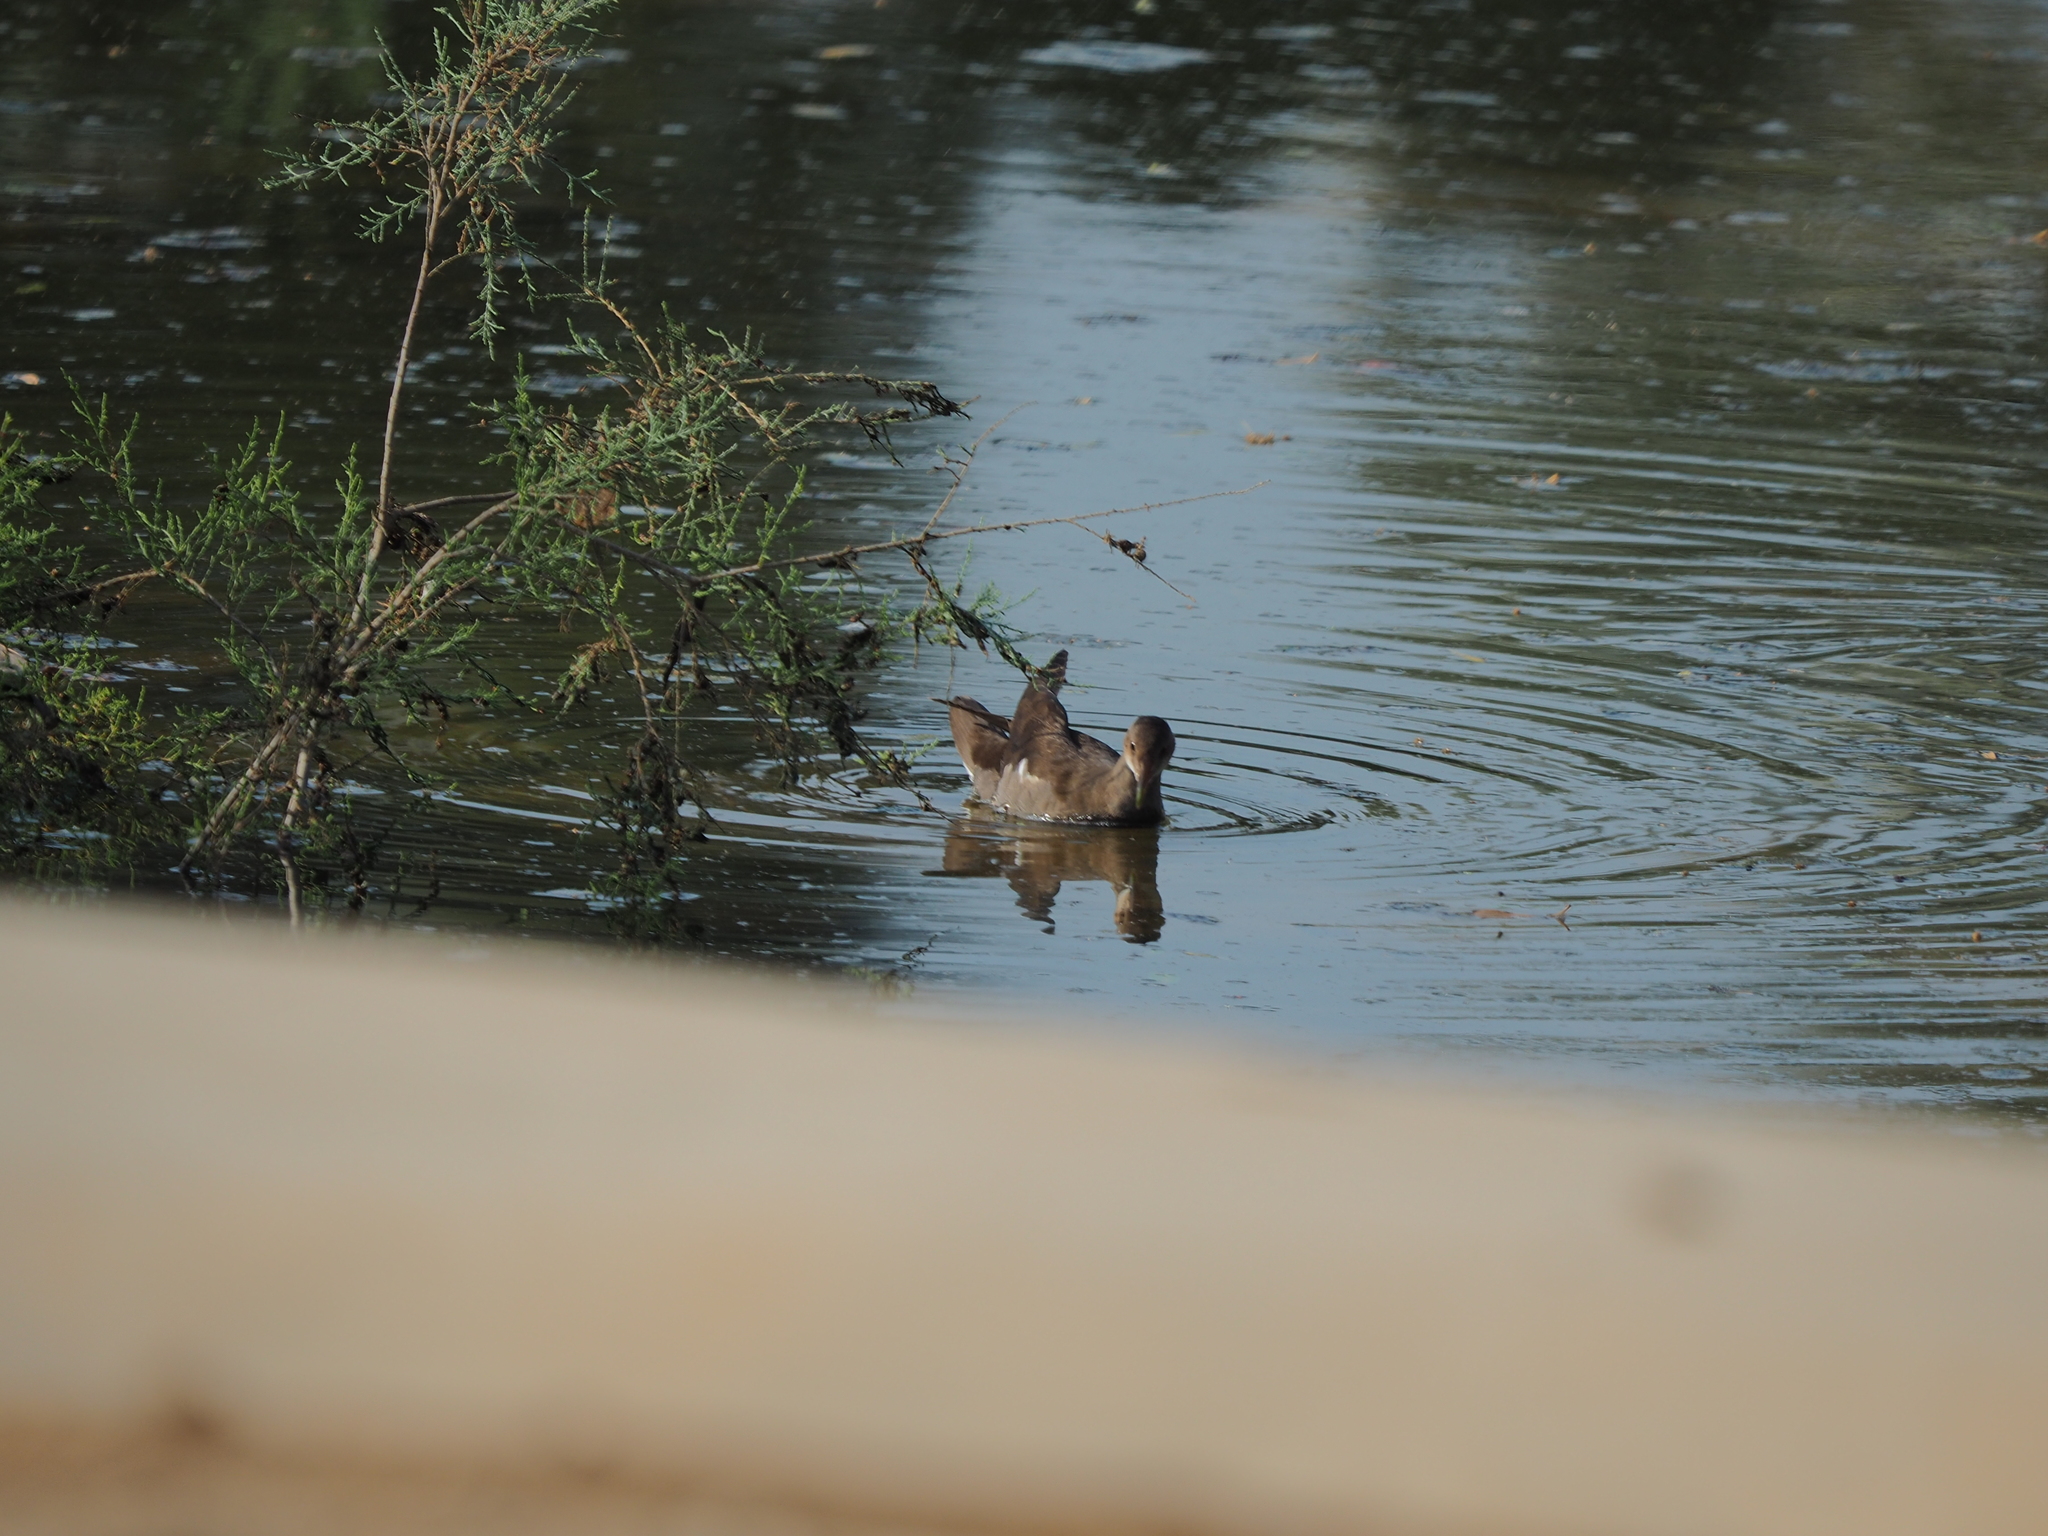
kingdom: Animalia
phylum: Chordata
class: Aves
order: Gruiformes
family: Rallidae
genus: Gallinula
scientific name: Gallinula chloropus
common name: Common moorhen
